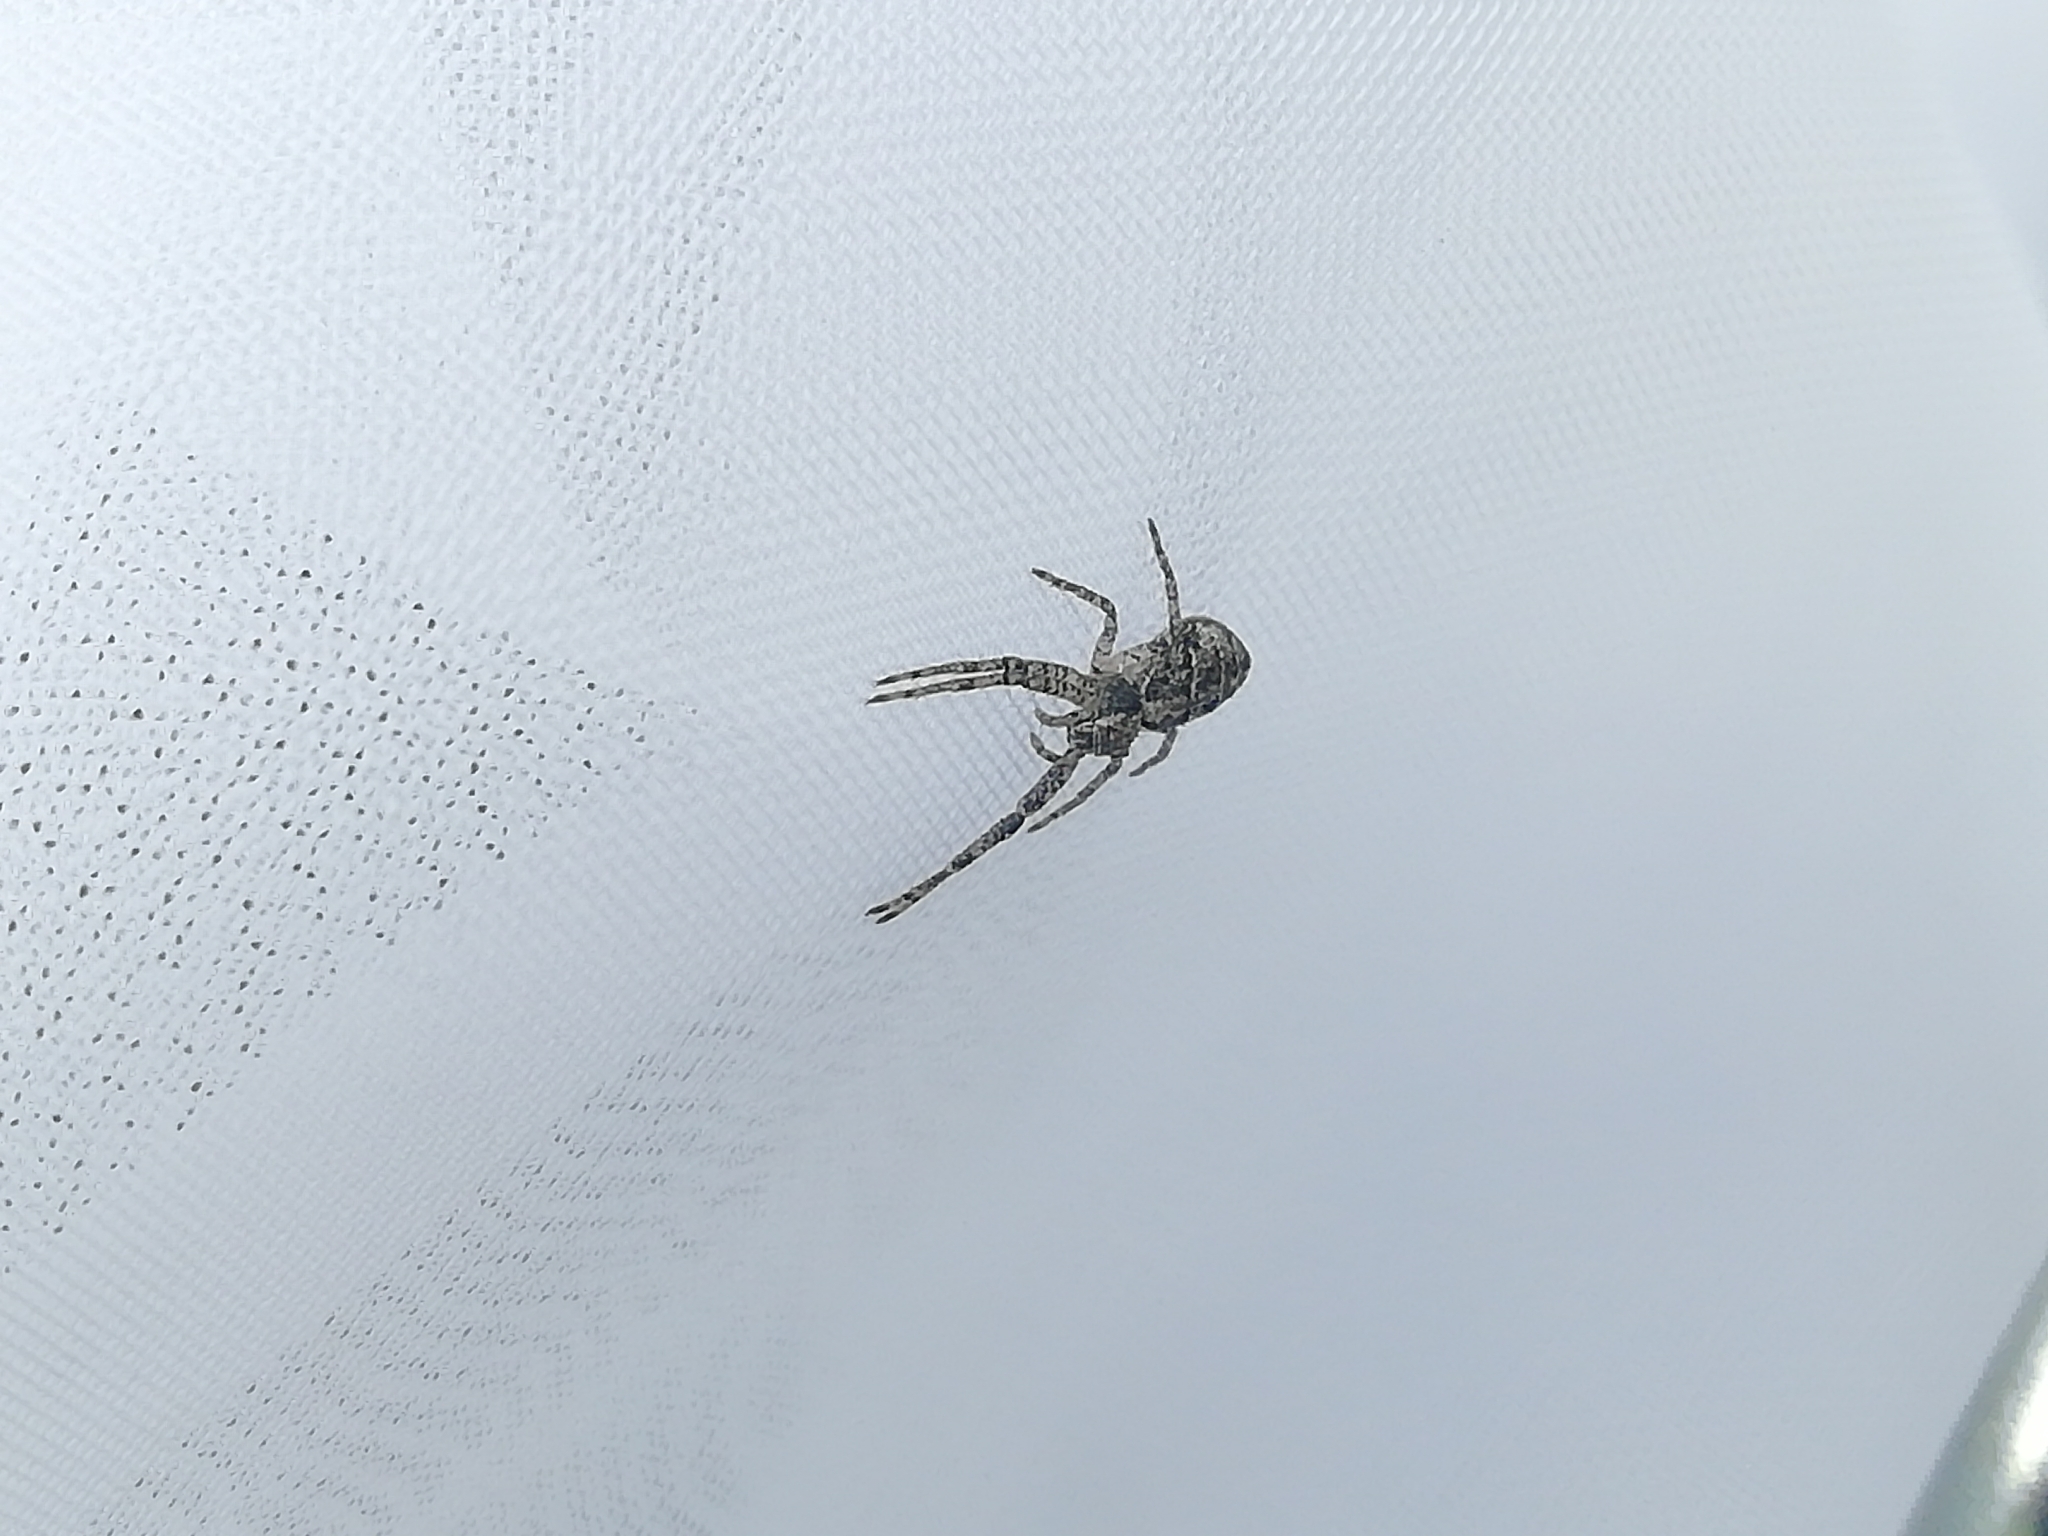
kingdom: Animalia
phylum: Arthropoda
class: Arachnida
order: Araneae
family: Thomisidae
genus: Tmarus
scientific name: Tmarus
